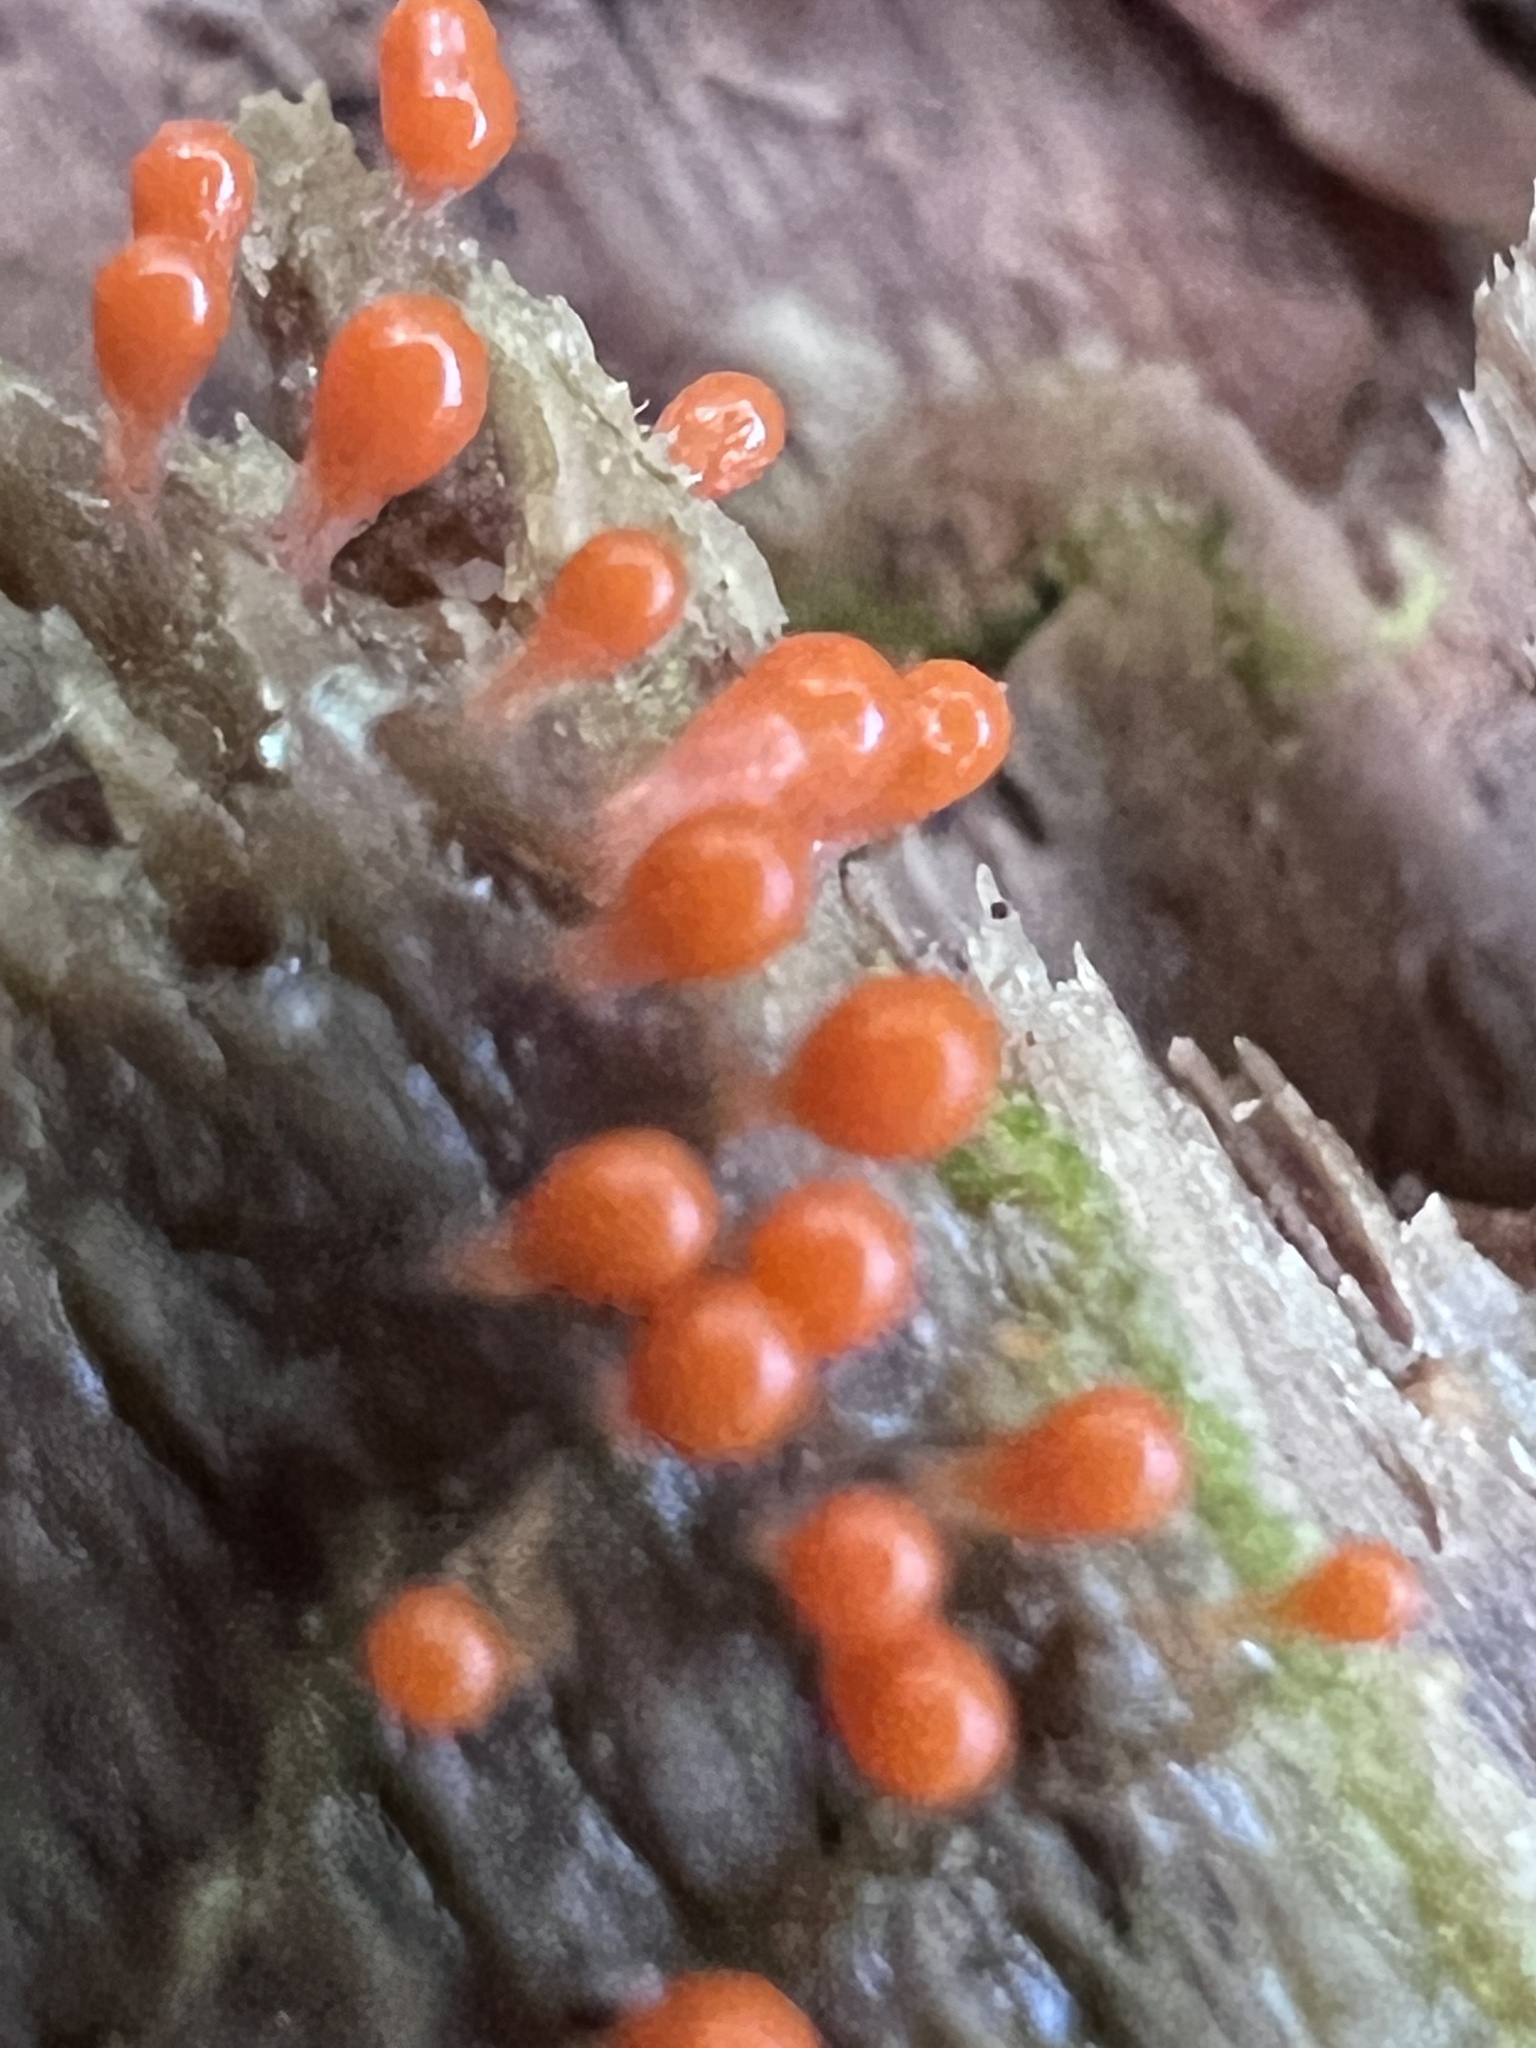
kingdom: Protozoa
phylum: Mycetozoa
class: Myxomycetes
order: Trichiales
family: Arcyriaceae
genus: Hemitrichia
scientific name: Hemitrichia decipiens
